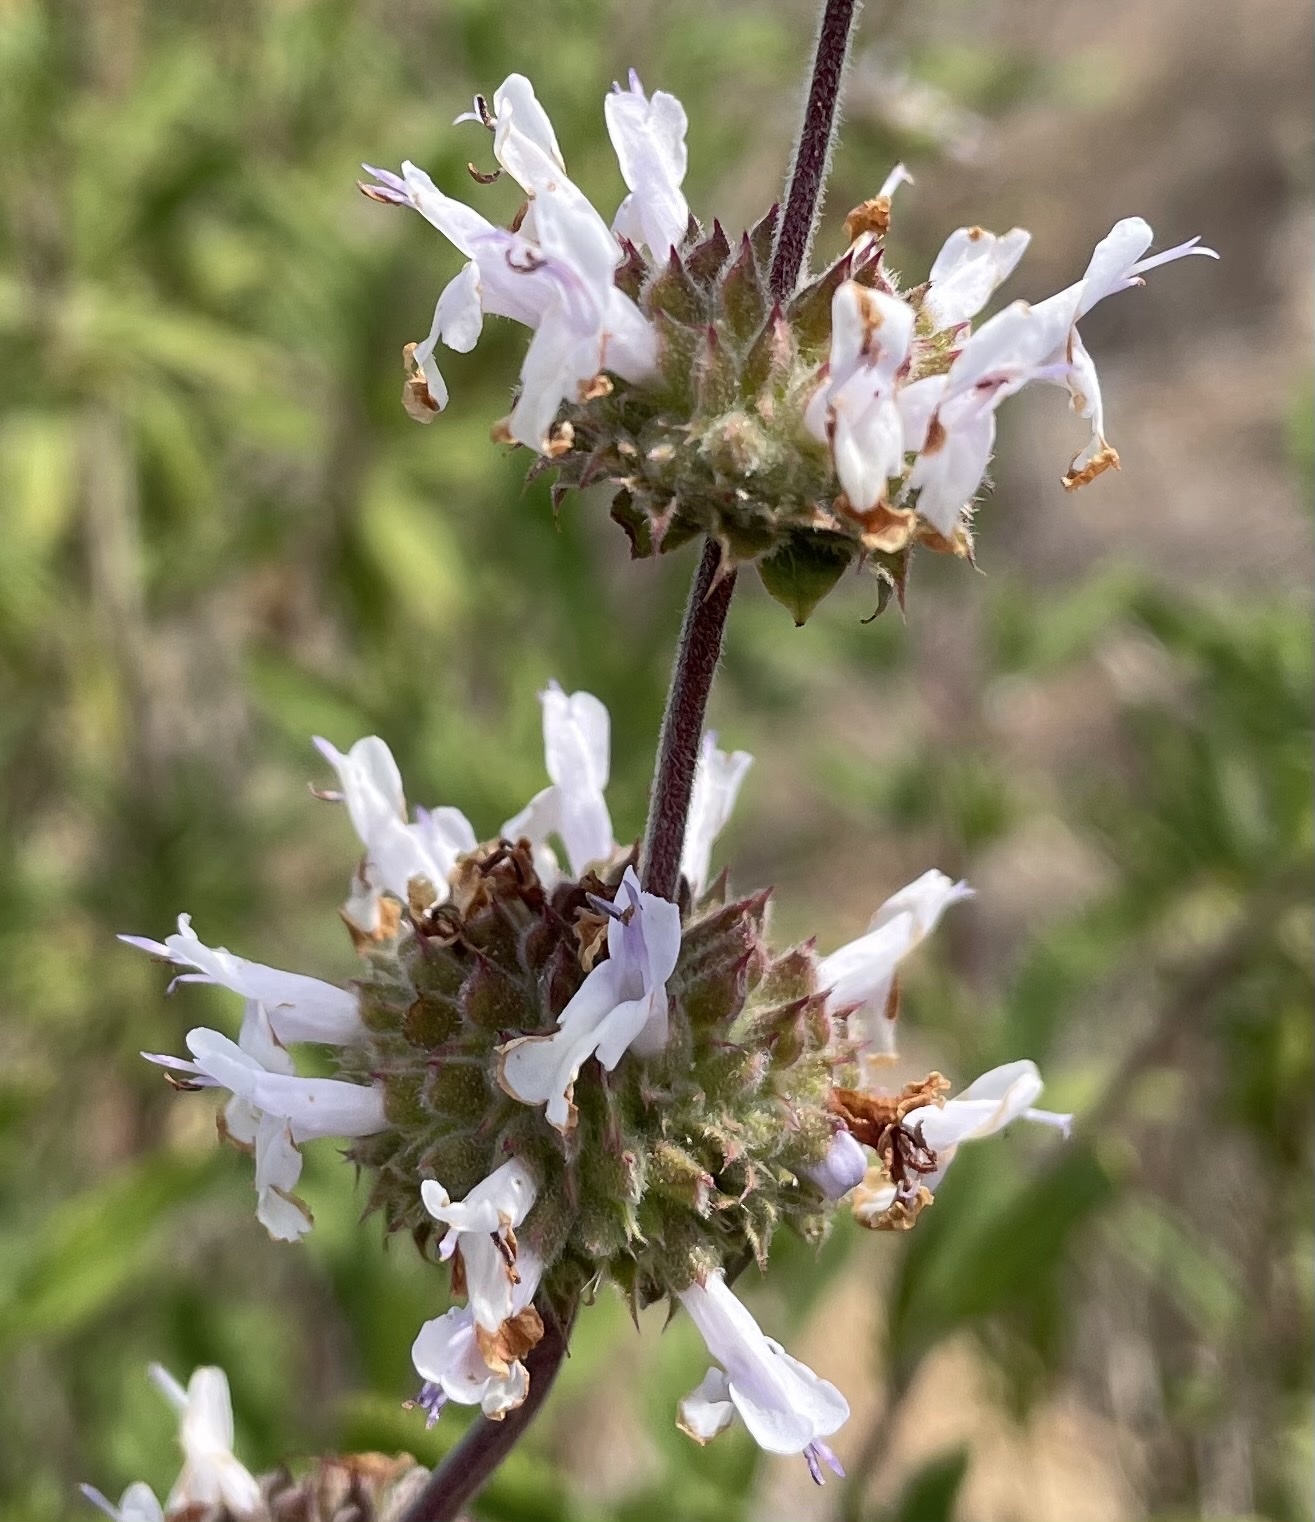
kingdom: Plantae
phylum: Tracheophyta
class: Magnoliopsida
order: Lamiales
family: Lamiaceae
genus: Salvia
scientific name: Salvia mellifera
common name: Black sage
